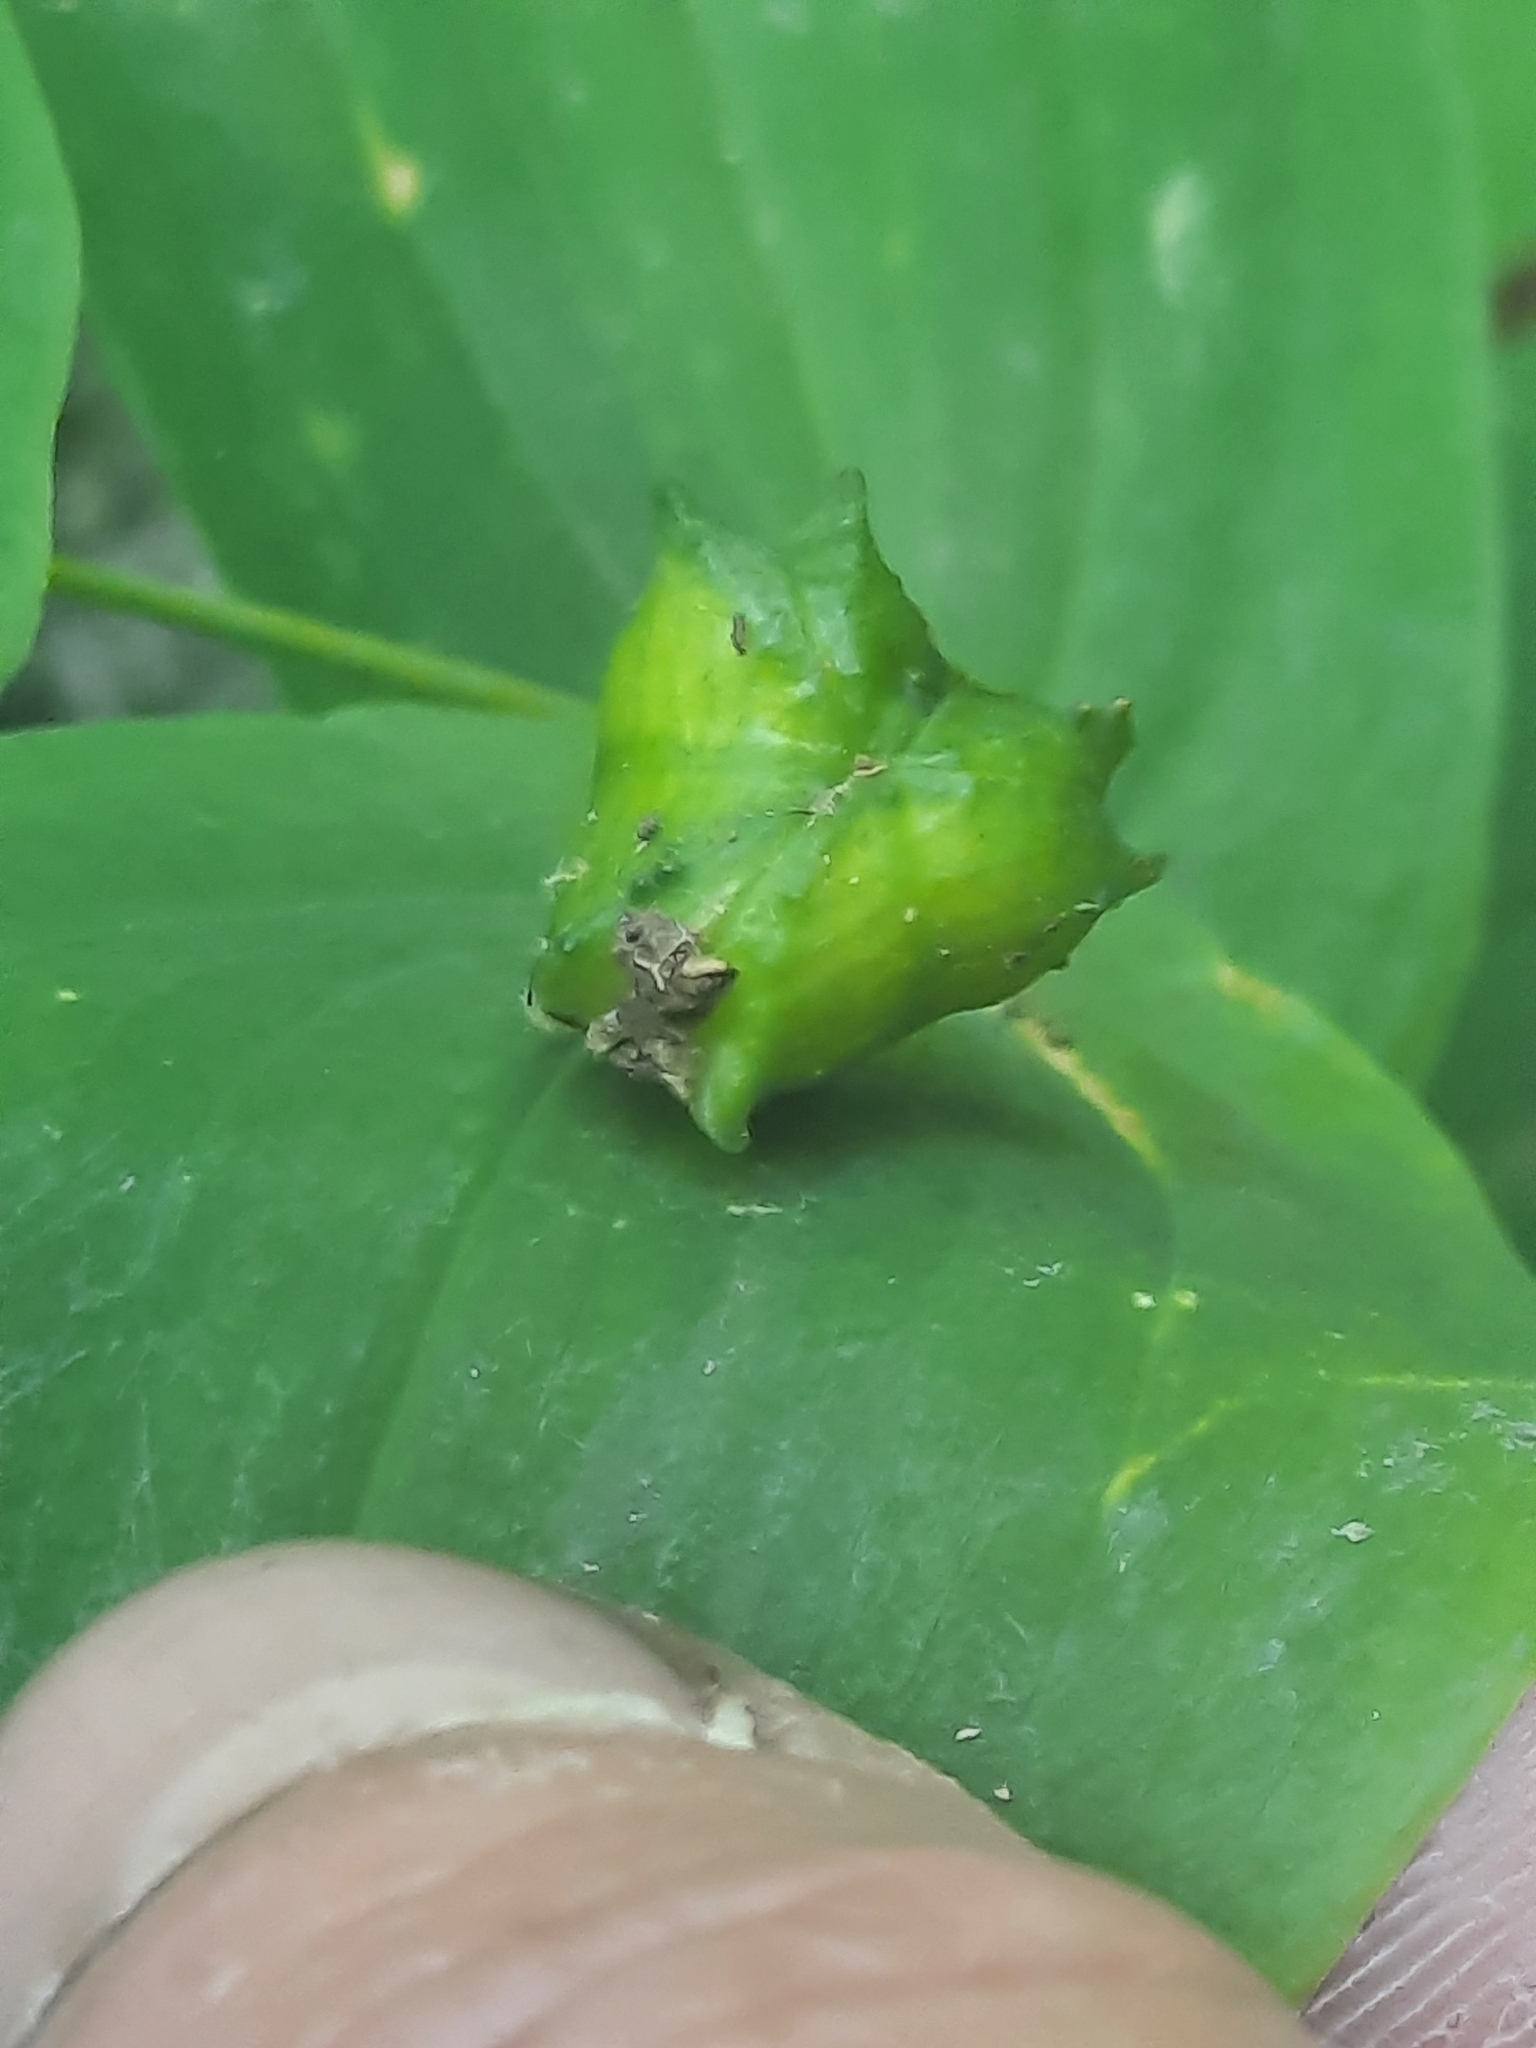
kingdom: Plantae
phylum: Tracheophyta
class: Liliopsida
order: Liliales
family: Colchicaceae
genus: Uvularia
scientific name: Uvularia perfoliata
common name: Perfoliate bellwort
